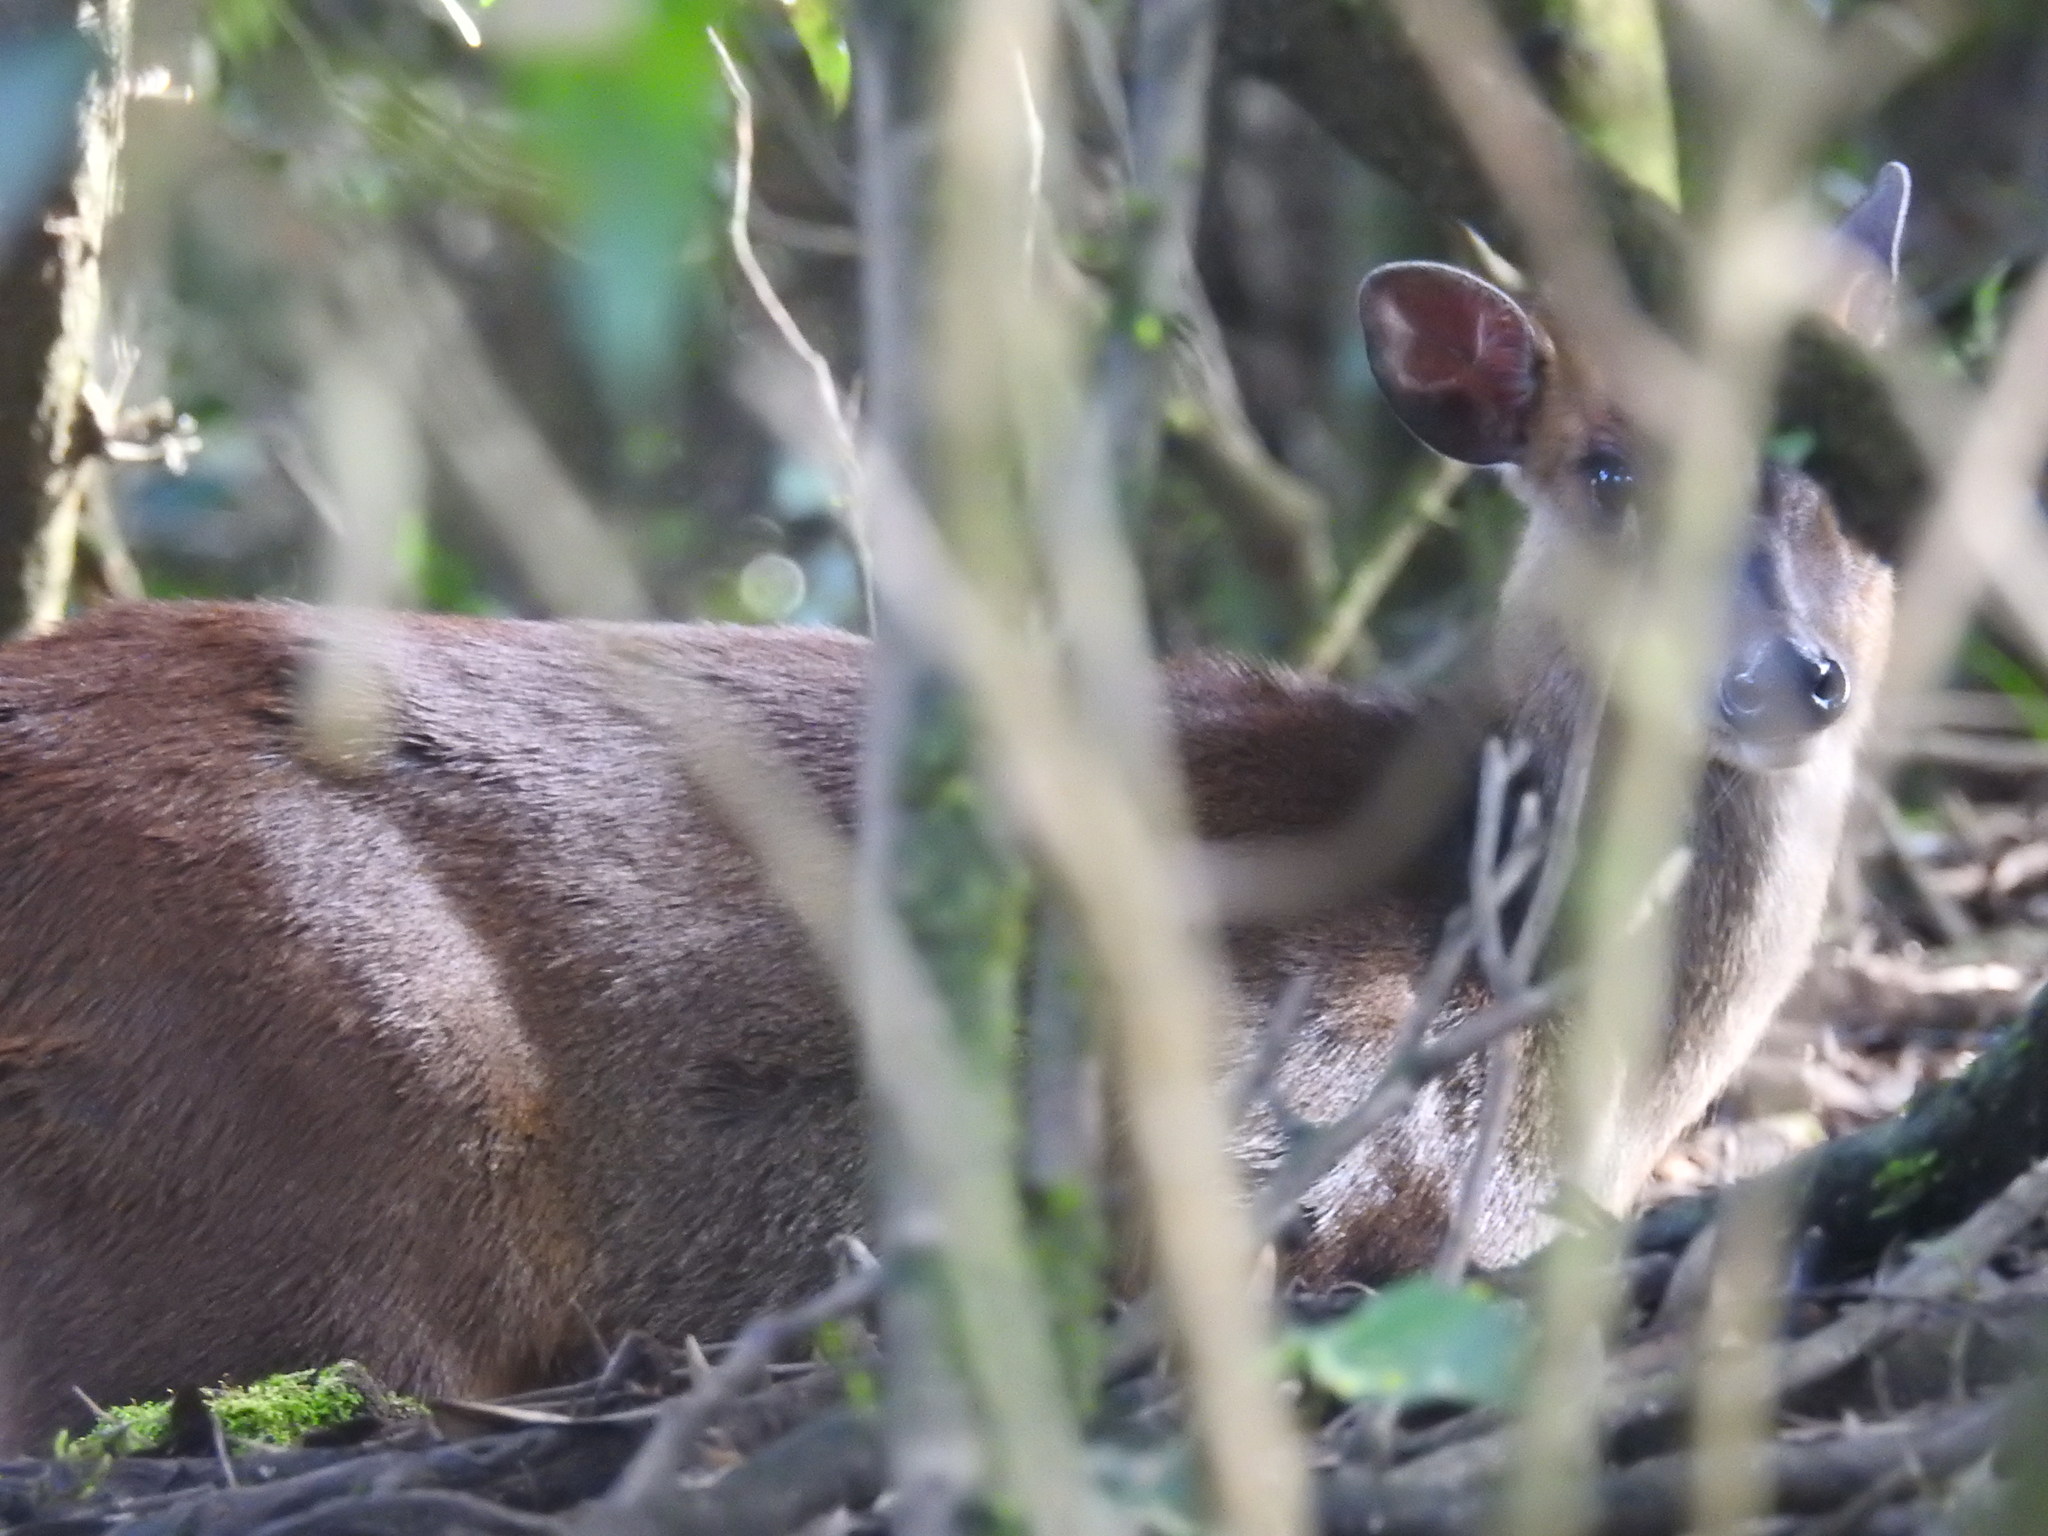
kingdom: Animalia
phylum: Chordata
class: Mammalia
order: Artiodactyla
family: Cervidae
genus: Muntiacus
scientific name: Muntiacus muntjak
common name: Indian muntjac
